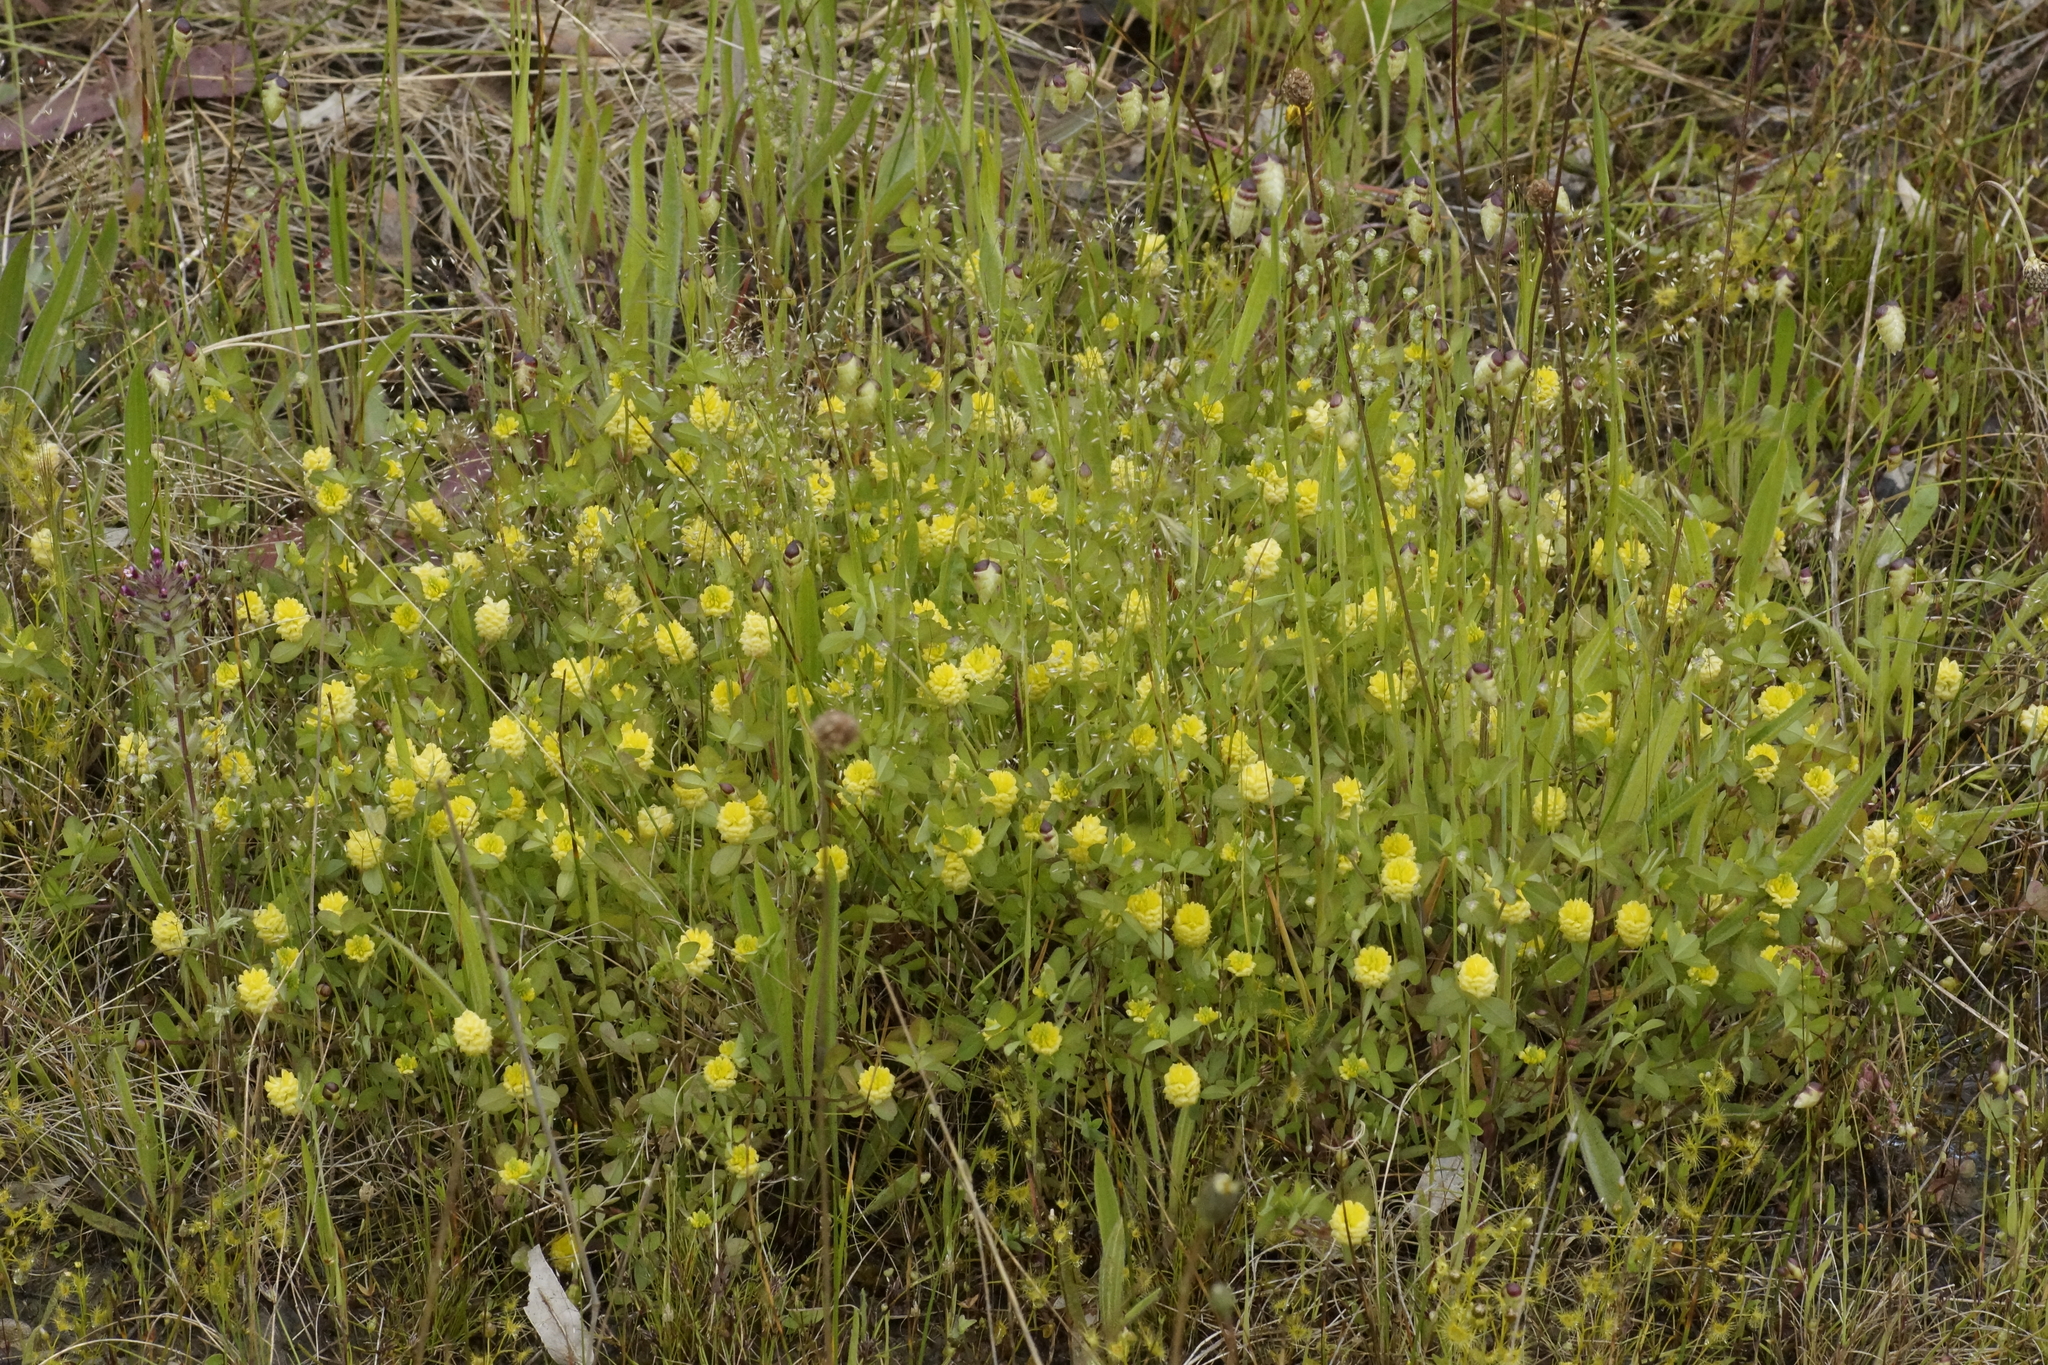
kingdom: Plantae
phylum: Tracheophyta
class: Magnoliopsida
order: Fabales
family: Fabaceae
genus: Trifolium
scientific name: Trifolium campestre
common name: Field clover
